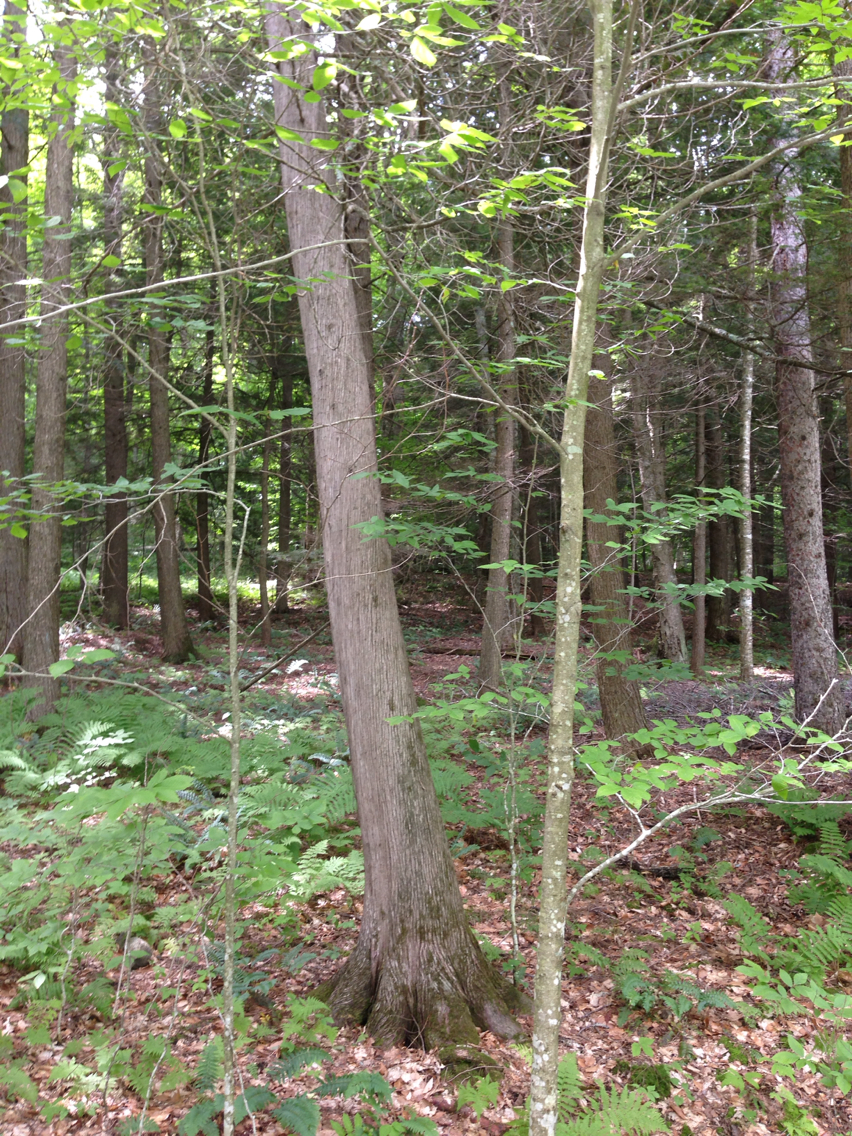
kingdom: Plantae
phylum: Tracheophyta
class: Pinopsida
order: Pinales
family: Cupressaceae
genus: Thuja
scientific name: Thuja occidentalis
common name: Northern white-cedar
